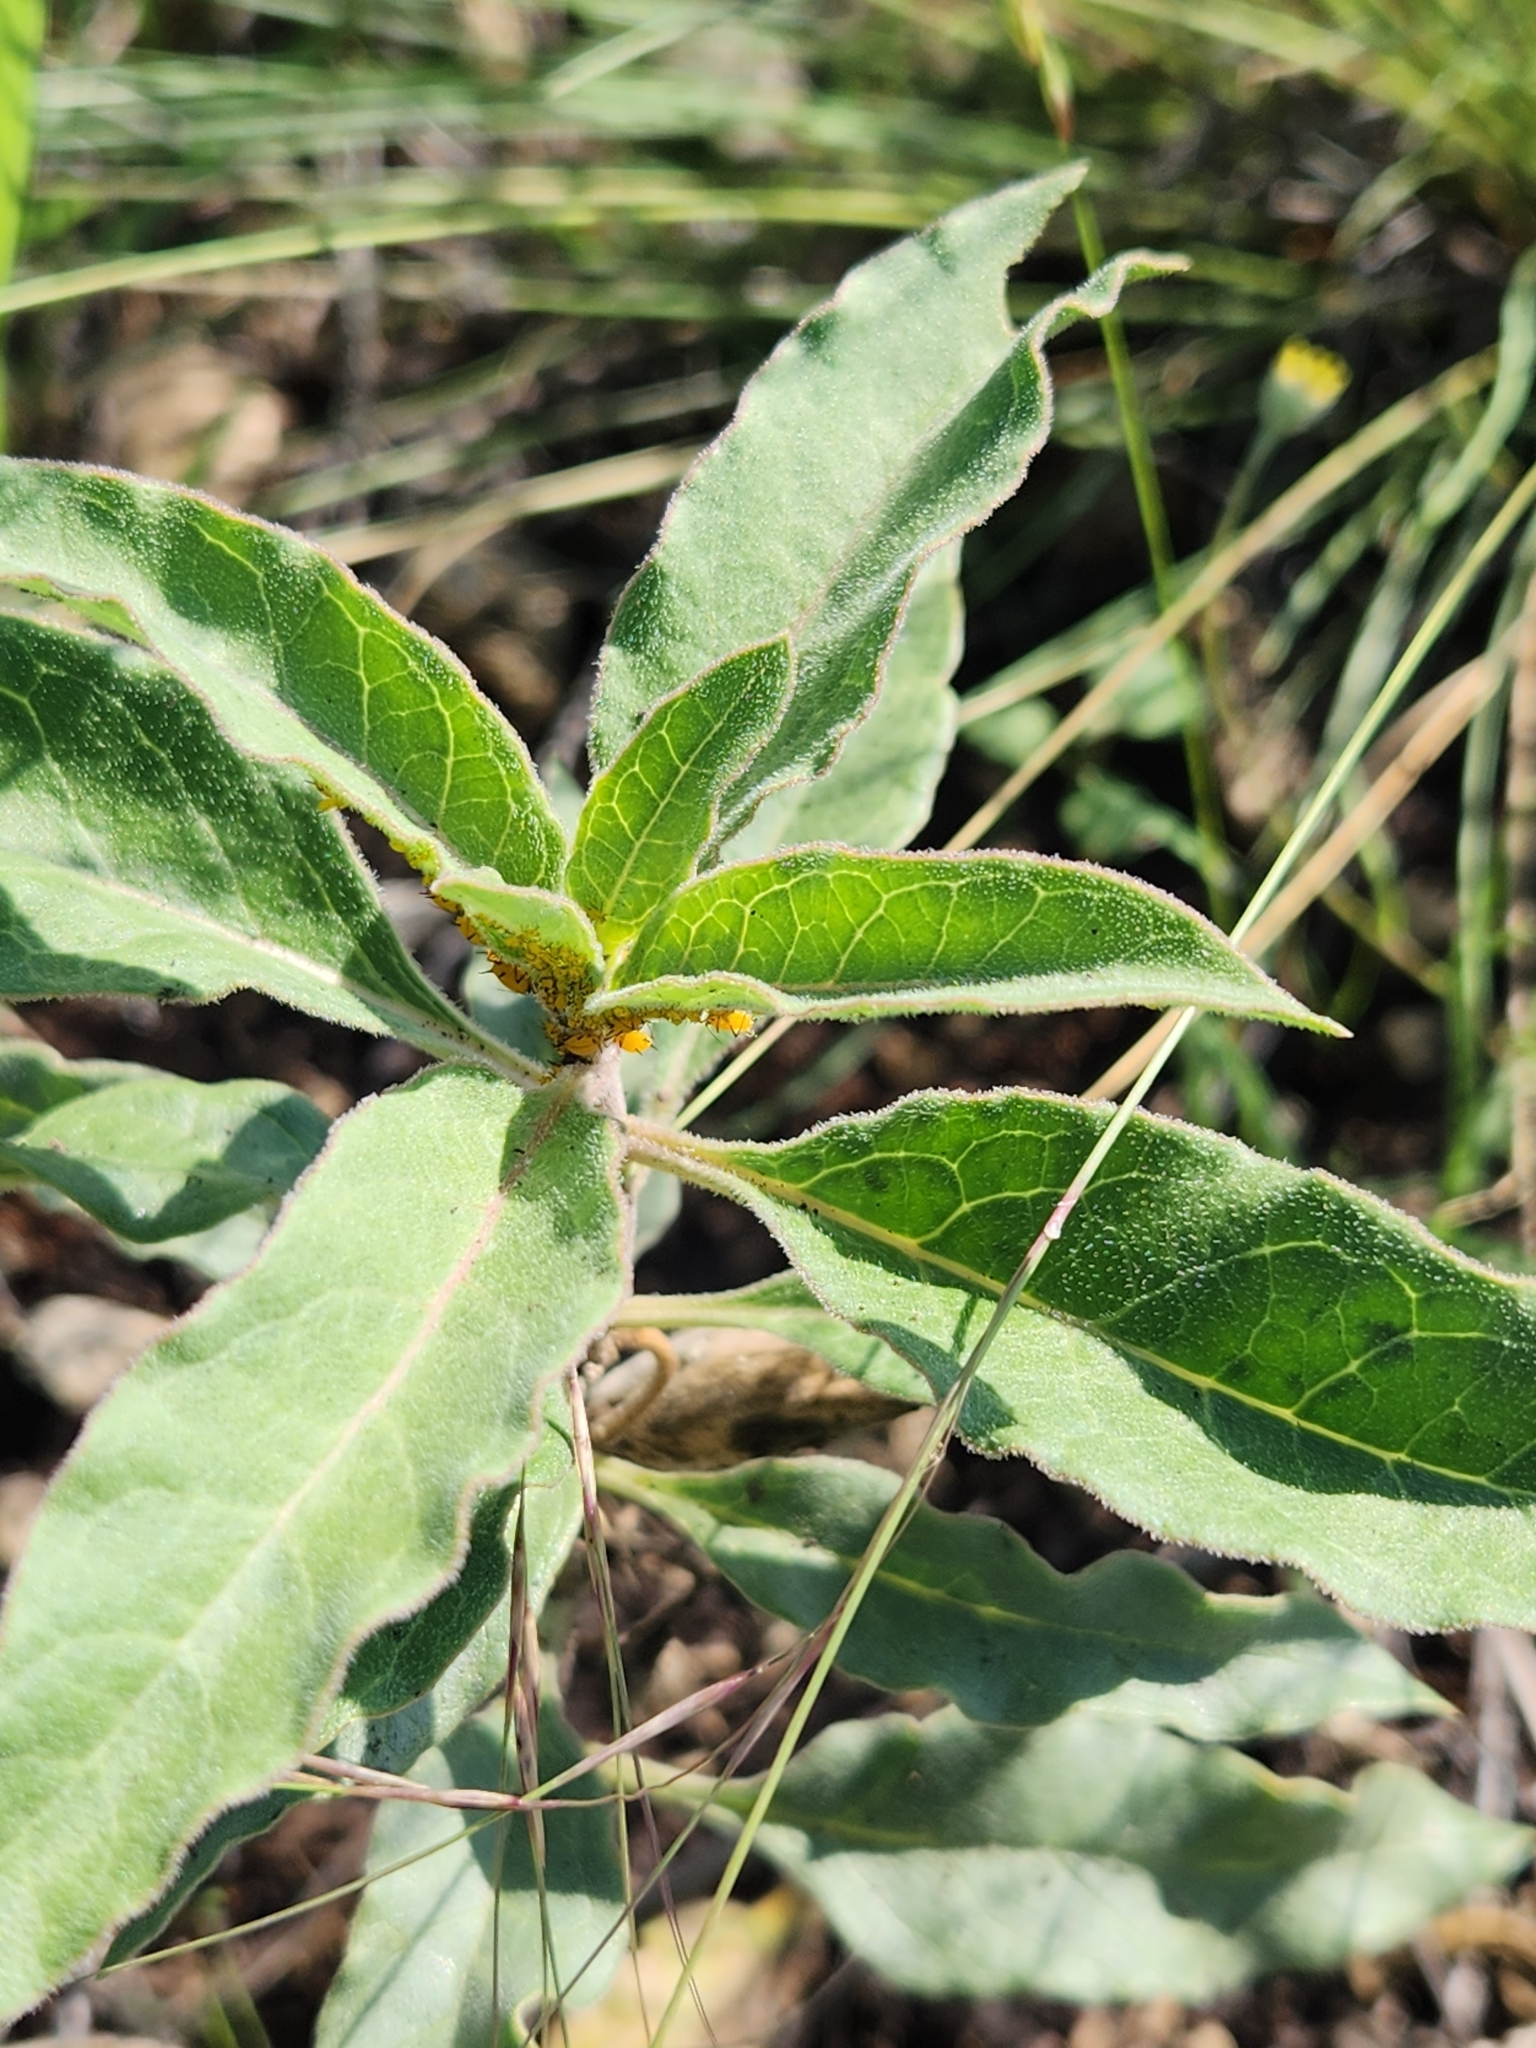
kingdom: Plantae
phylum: Tracheophyta
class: Magnoliopsida
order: Gentianales
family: Apocynaceae
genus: Asclepias
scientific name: Asclepias oenotheroides
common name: Zizotes milkweed
